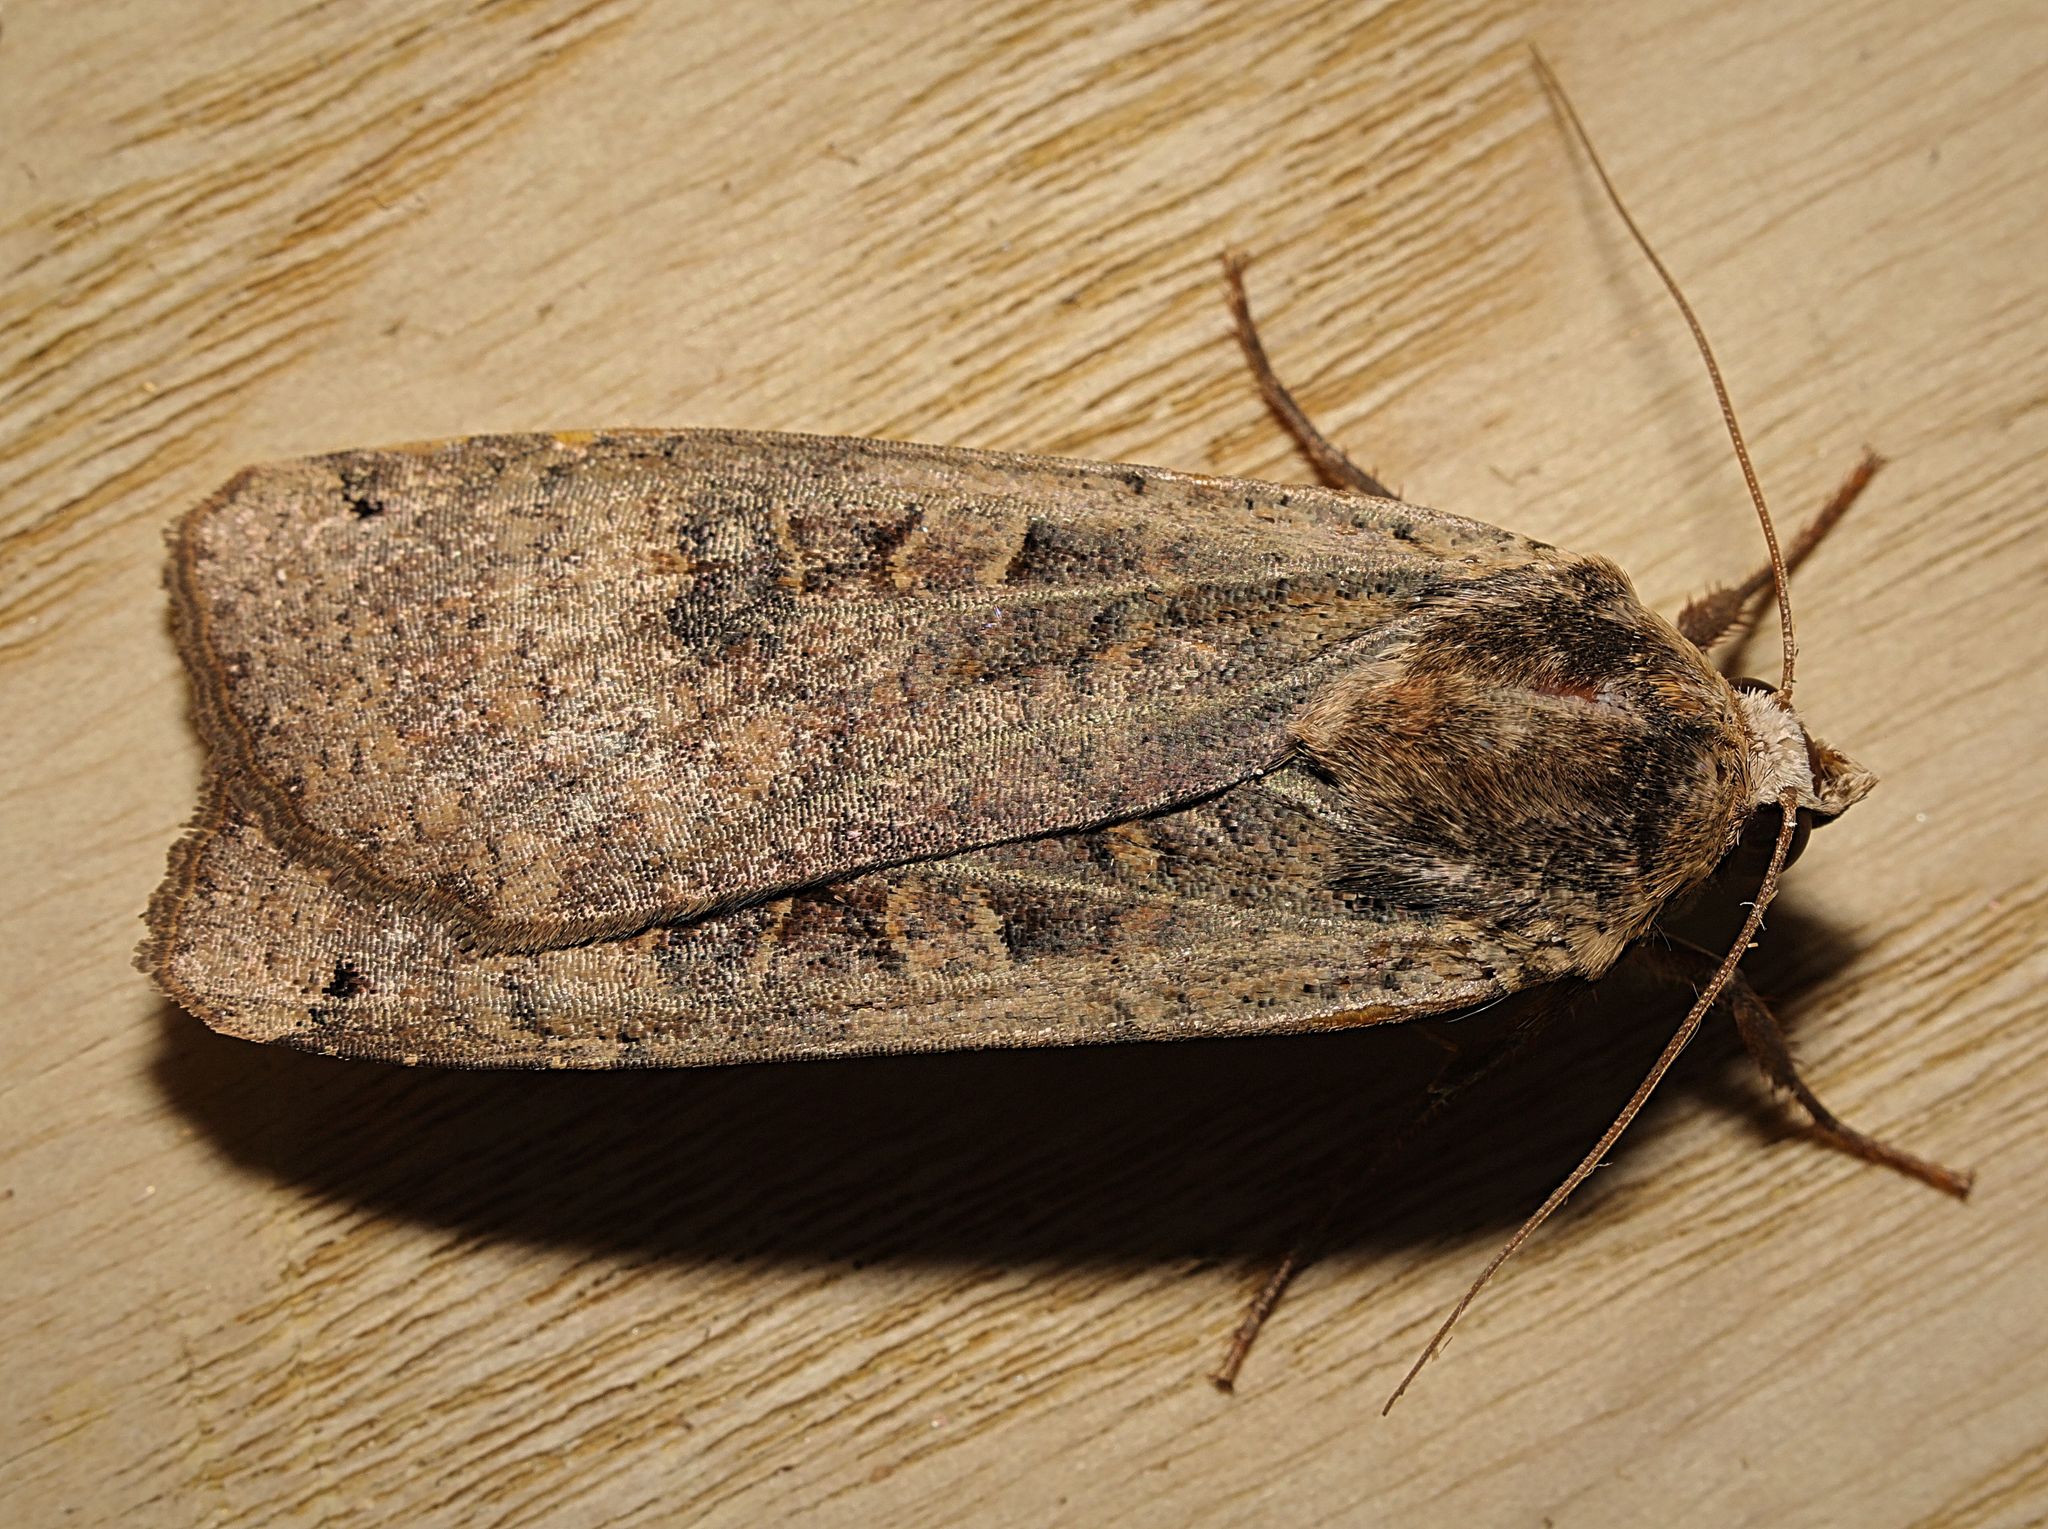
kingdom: Animalia
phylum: Arthropoda
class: Insecta
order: Lepidoptera
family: Noctuidae
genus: Noctua
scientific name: Noctua pronuba
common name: Large yellow underwing
